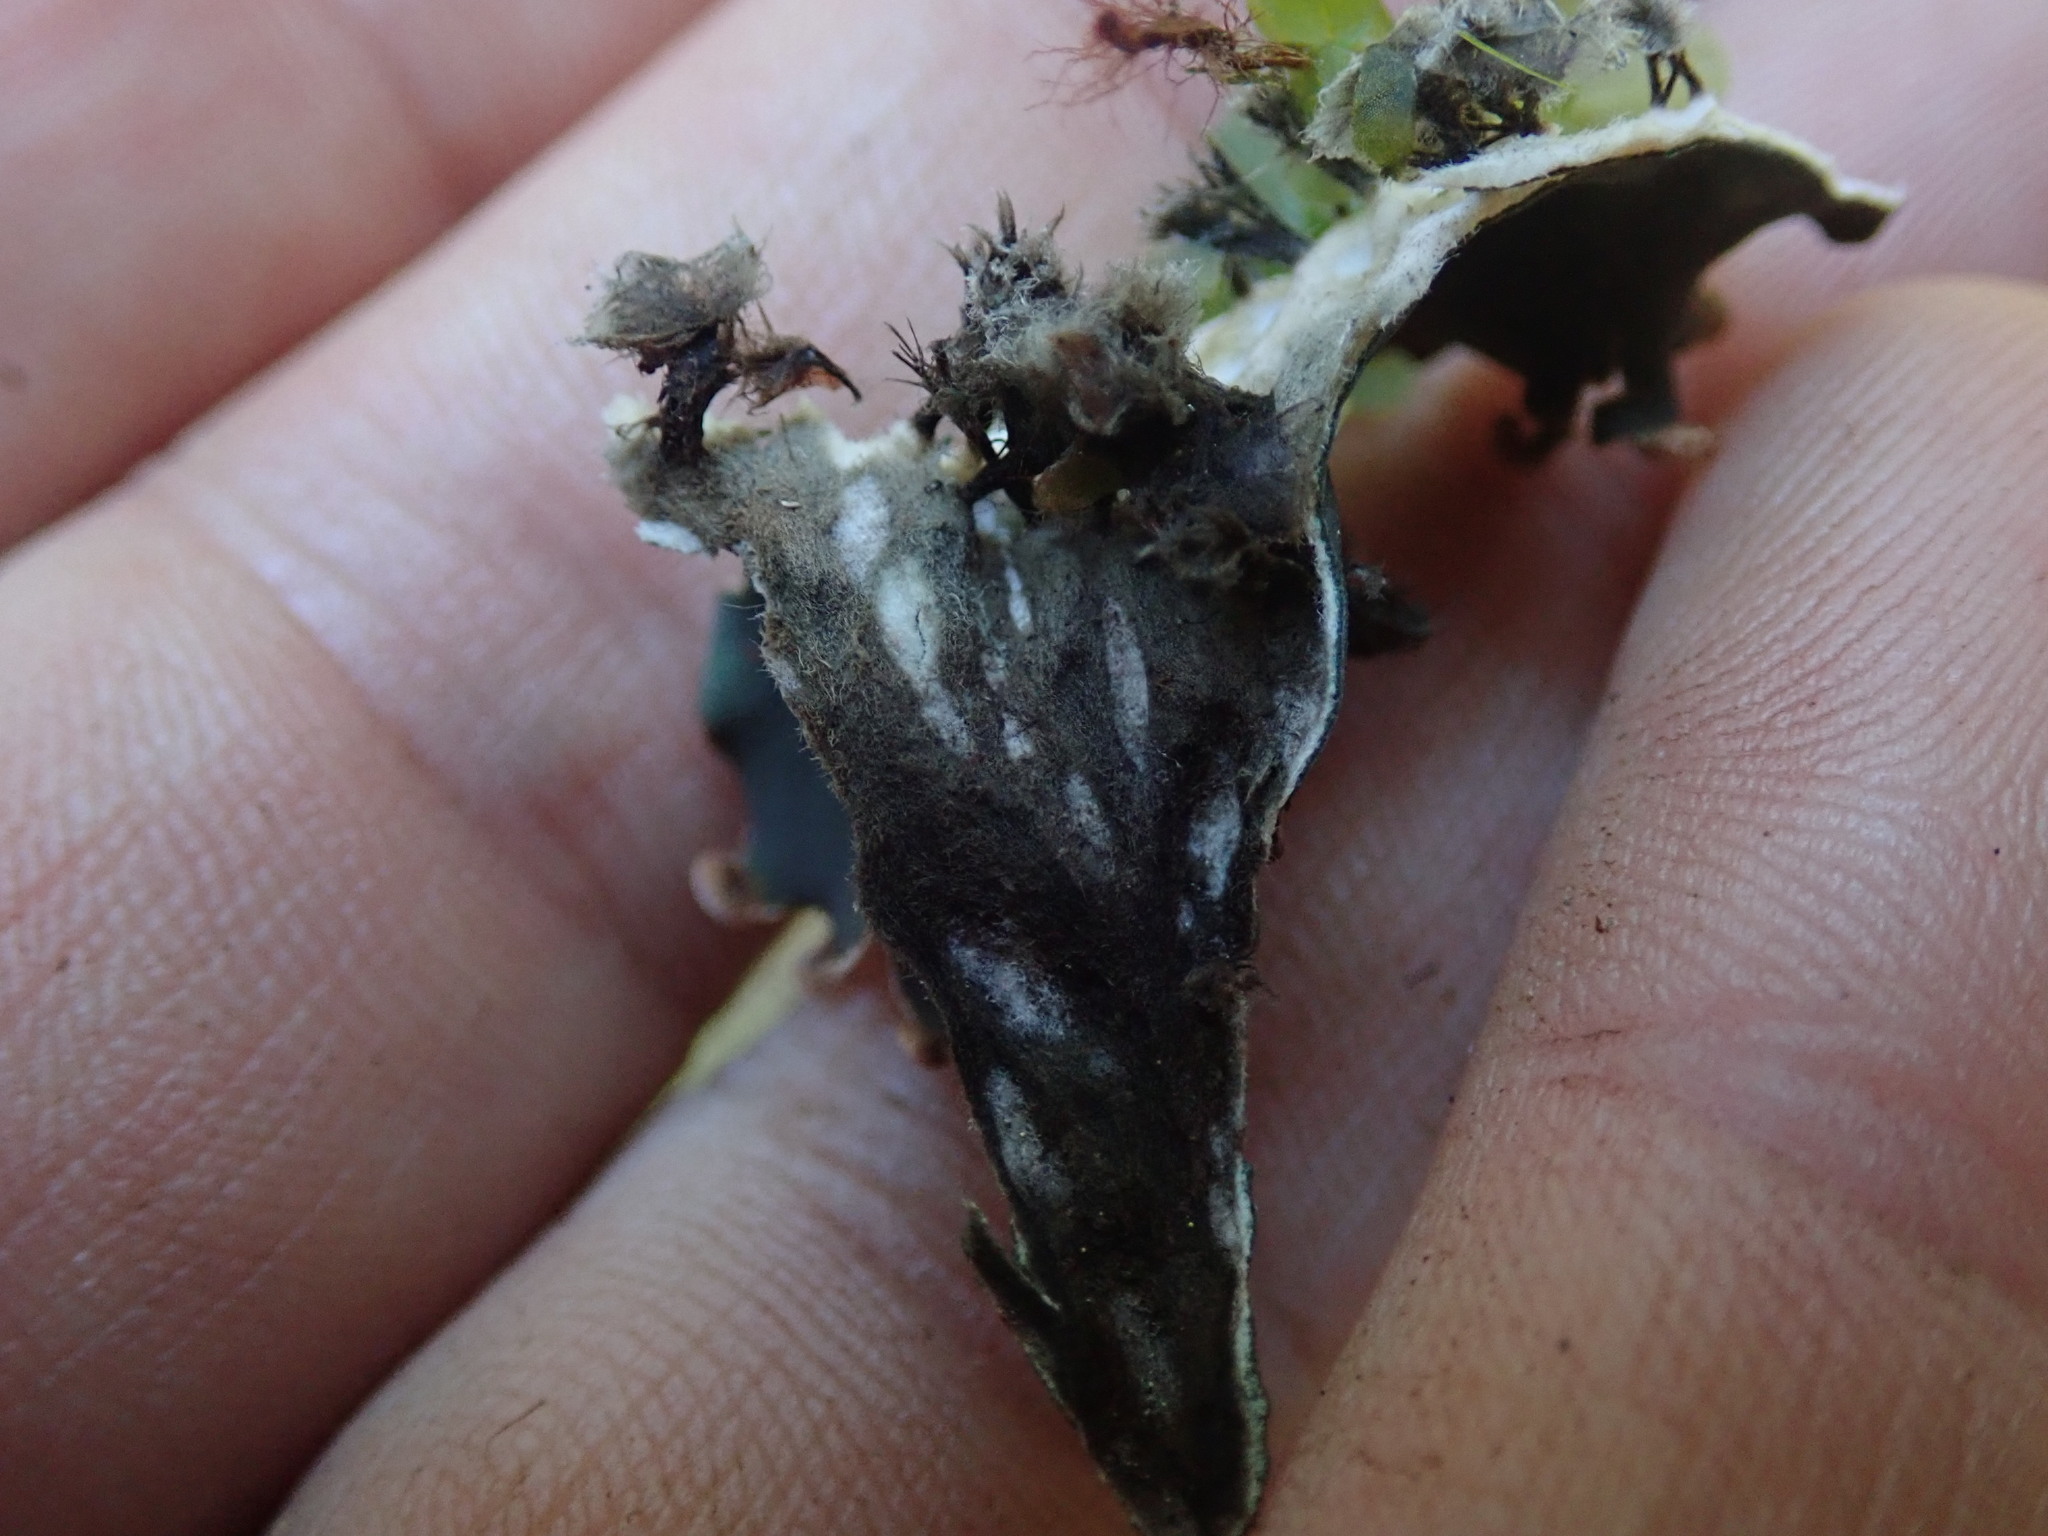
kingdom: Fungi
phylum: Ascomycota
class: Lecanoromycetes
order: Peltigerales
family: Peltigeraceae
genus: Peltigera
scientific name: Peltigera membranacea
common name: Membranous pelt lichen
